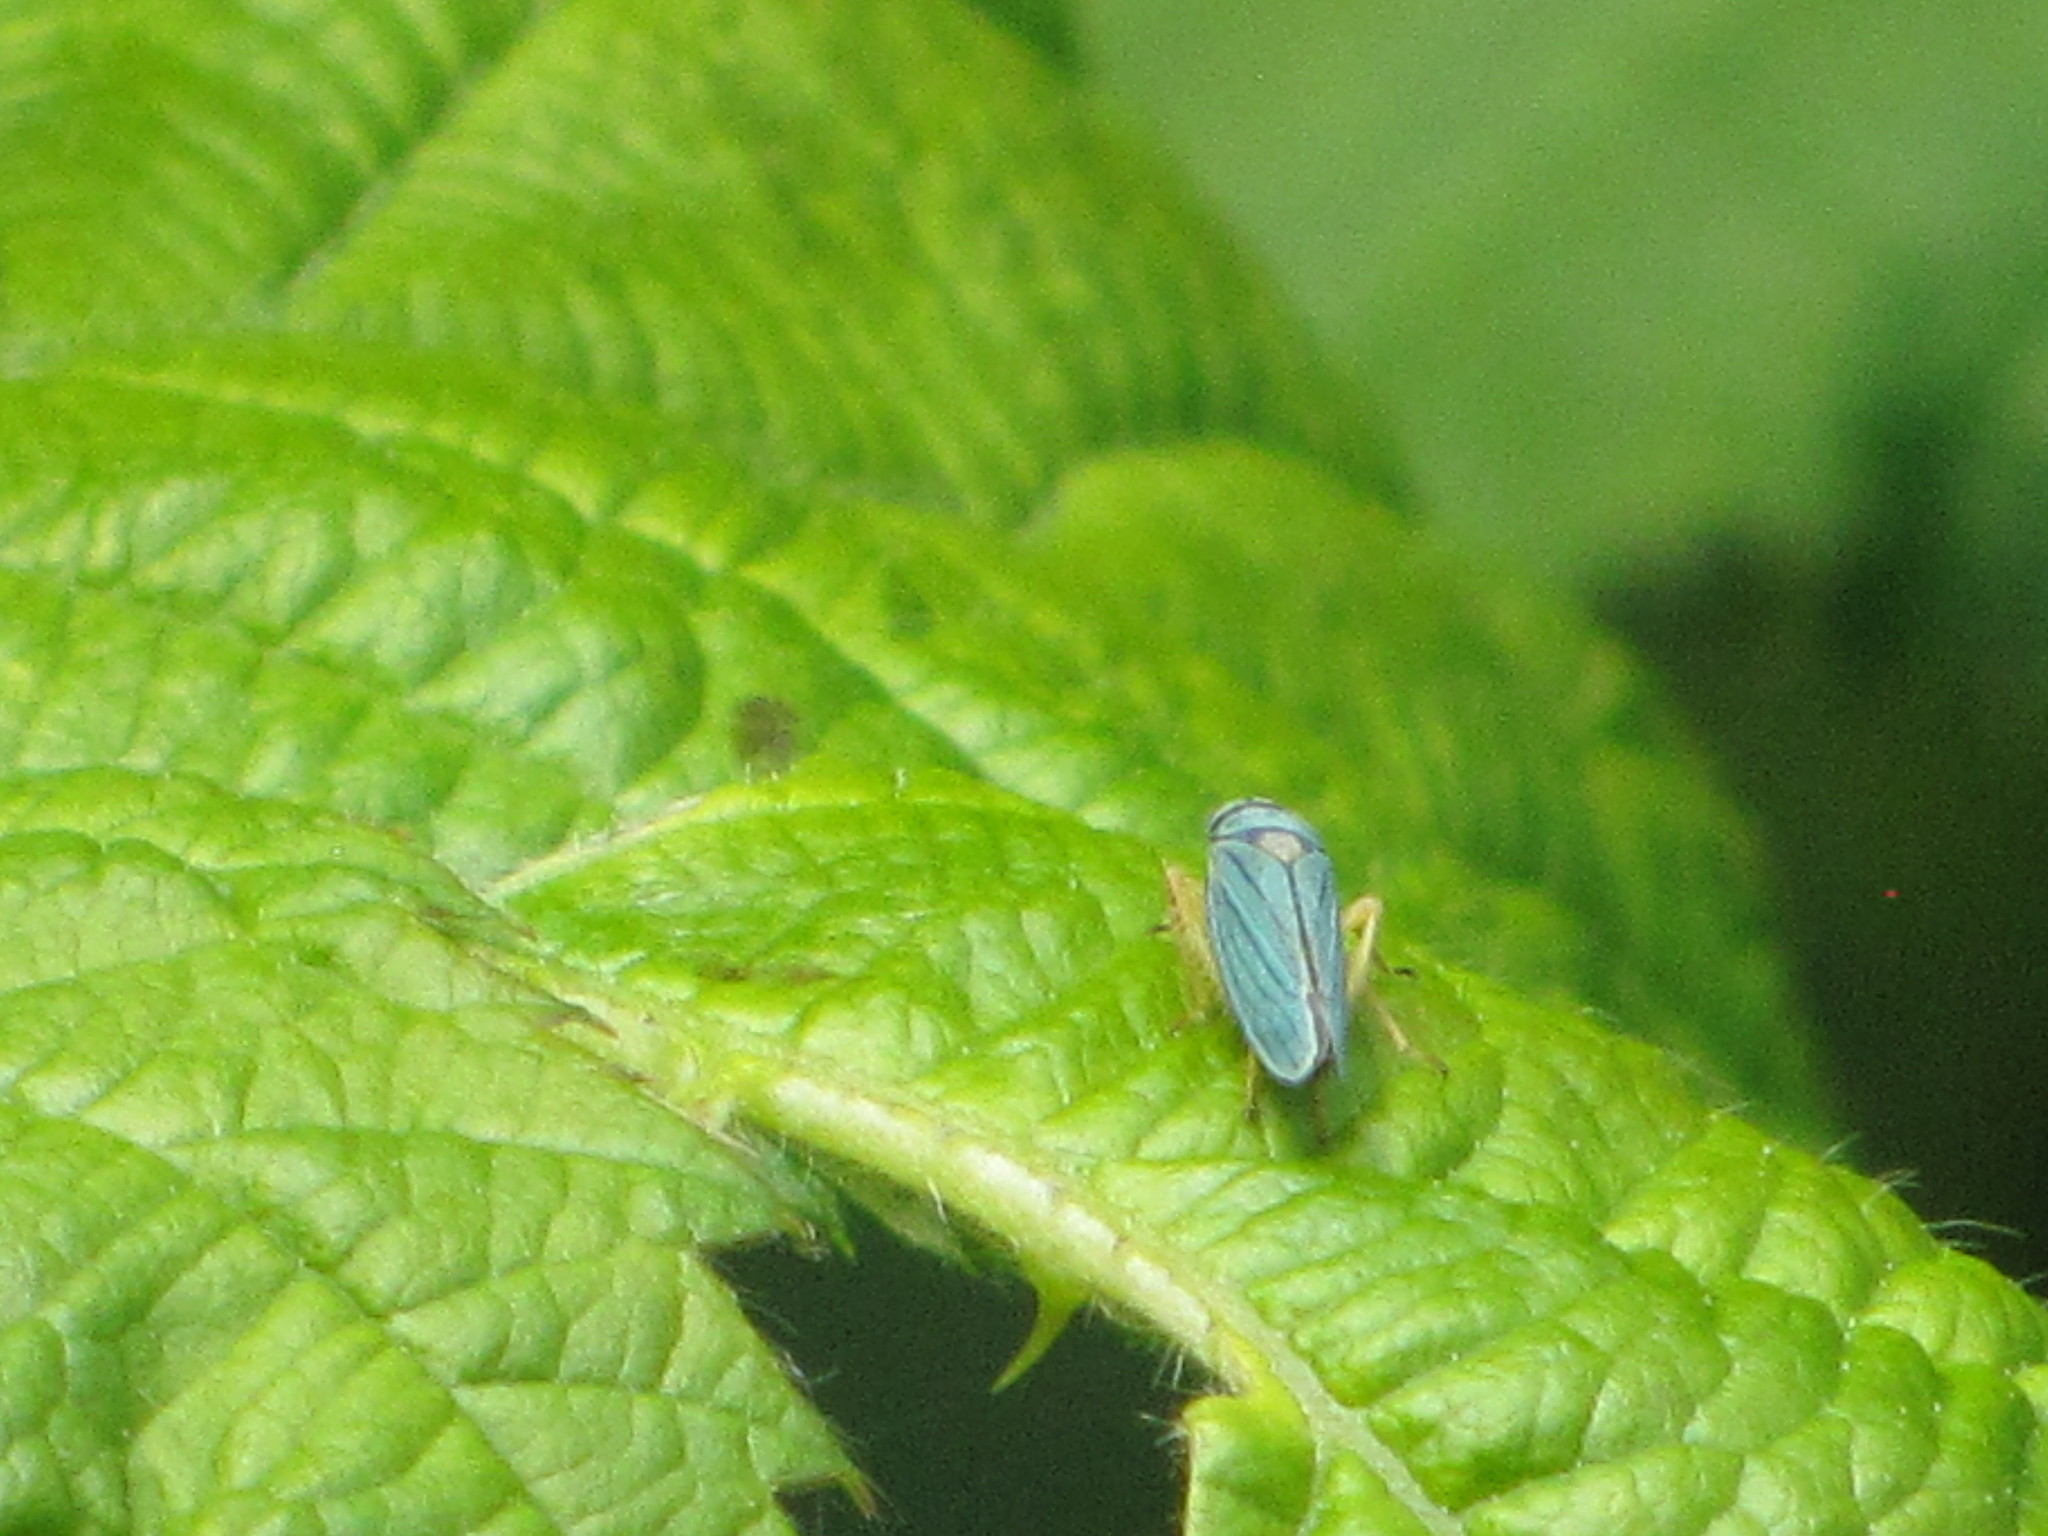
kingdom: Animalia
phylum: Arthropoda
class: Insecta
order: Hemiptera
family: Cicadellidae
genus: Graphocephala
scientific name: Graphocephala atropunctata
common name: Blue-green sharpshooter
